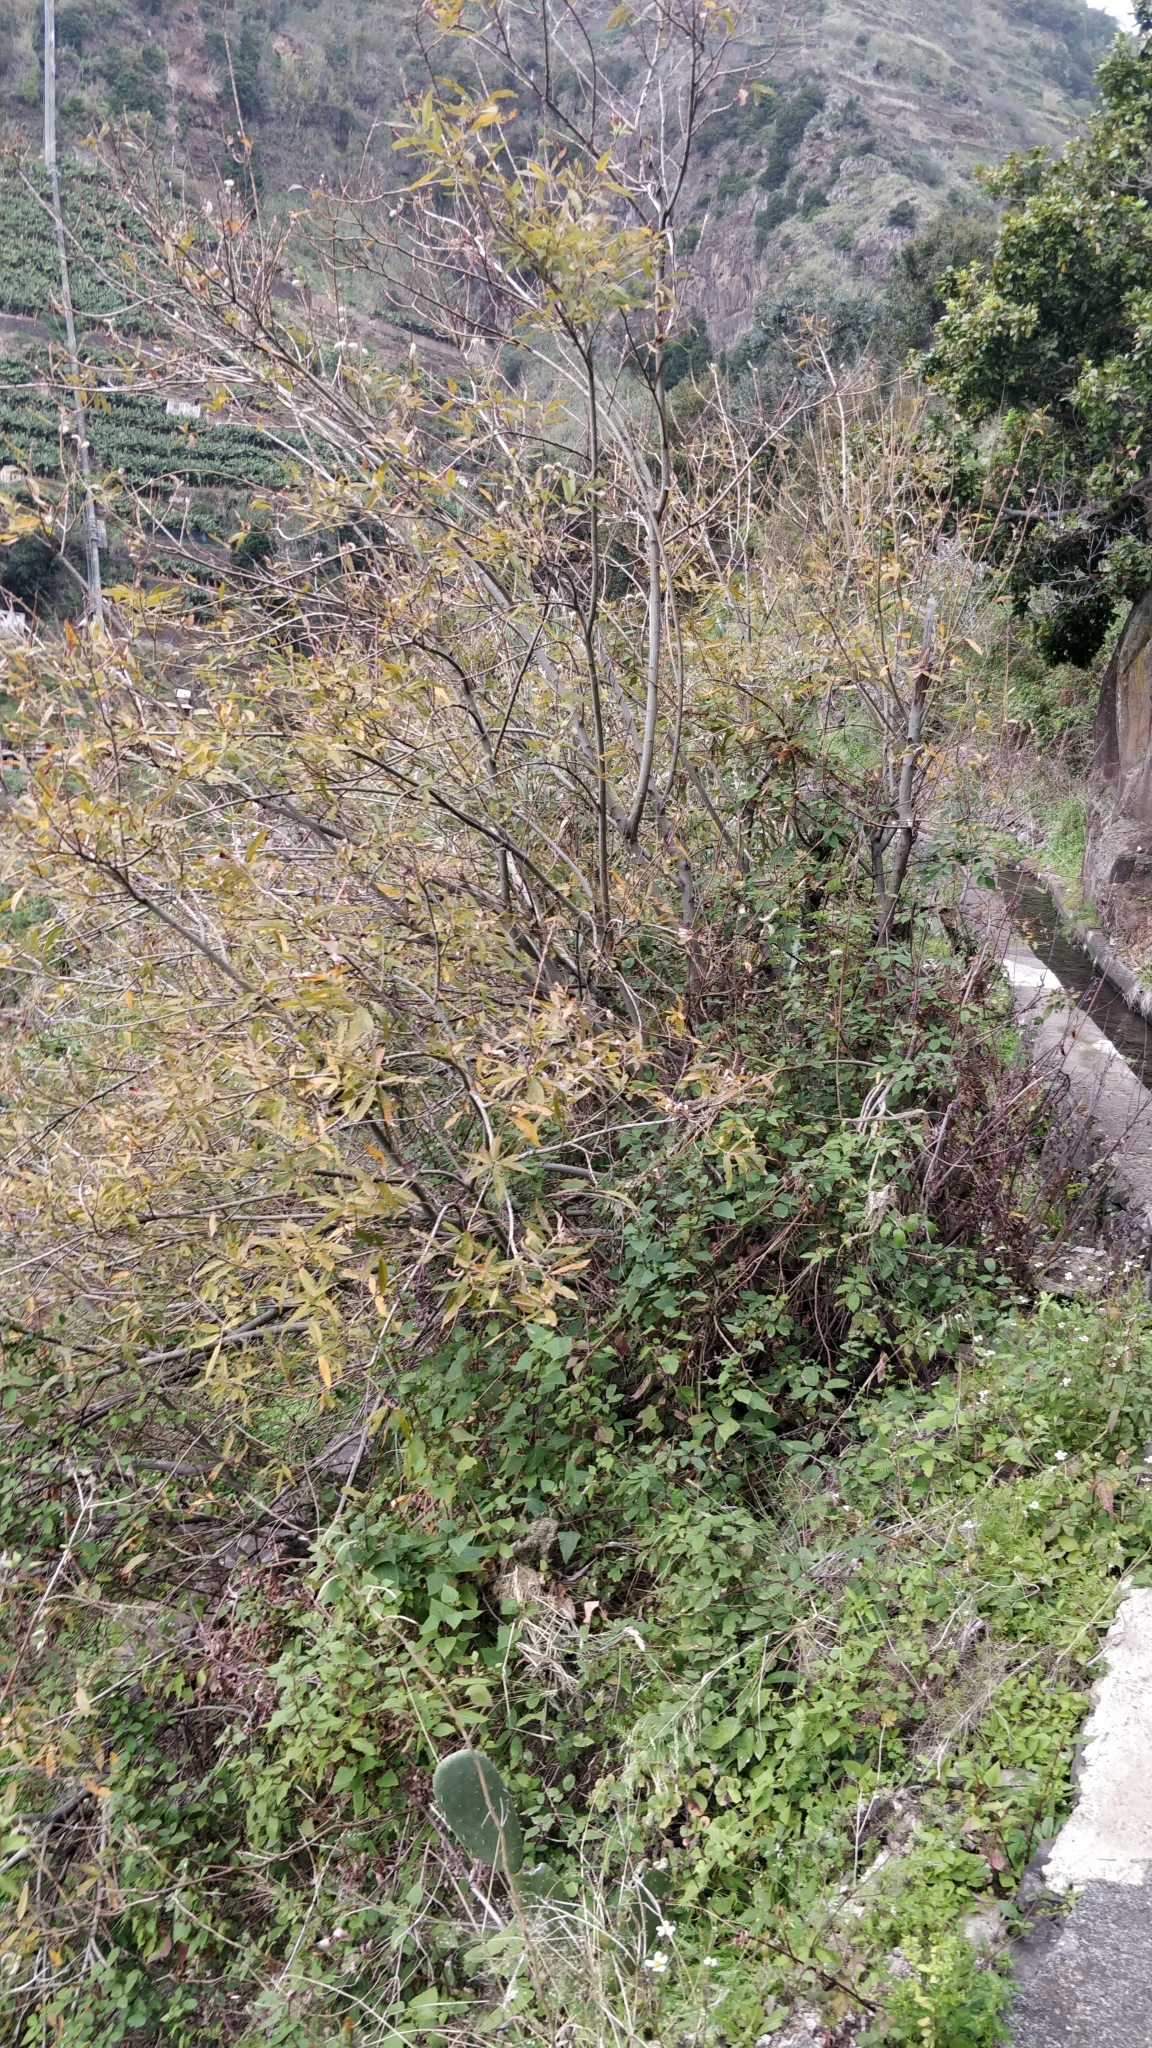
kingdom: Plantae
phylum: Tracheophyta
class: Magnoliopsida
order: Malpighiales
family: Salicaceae
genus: Salix
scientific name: Salix canariensis
